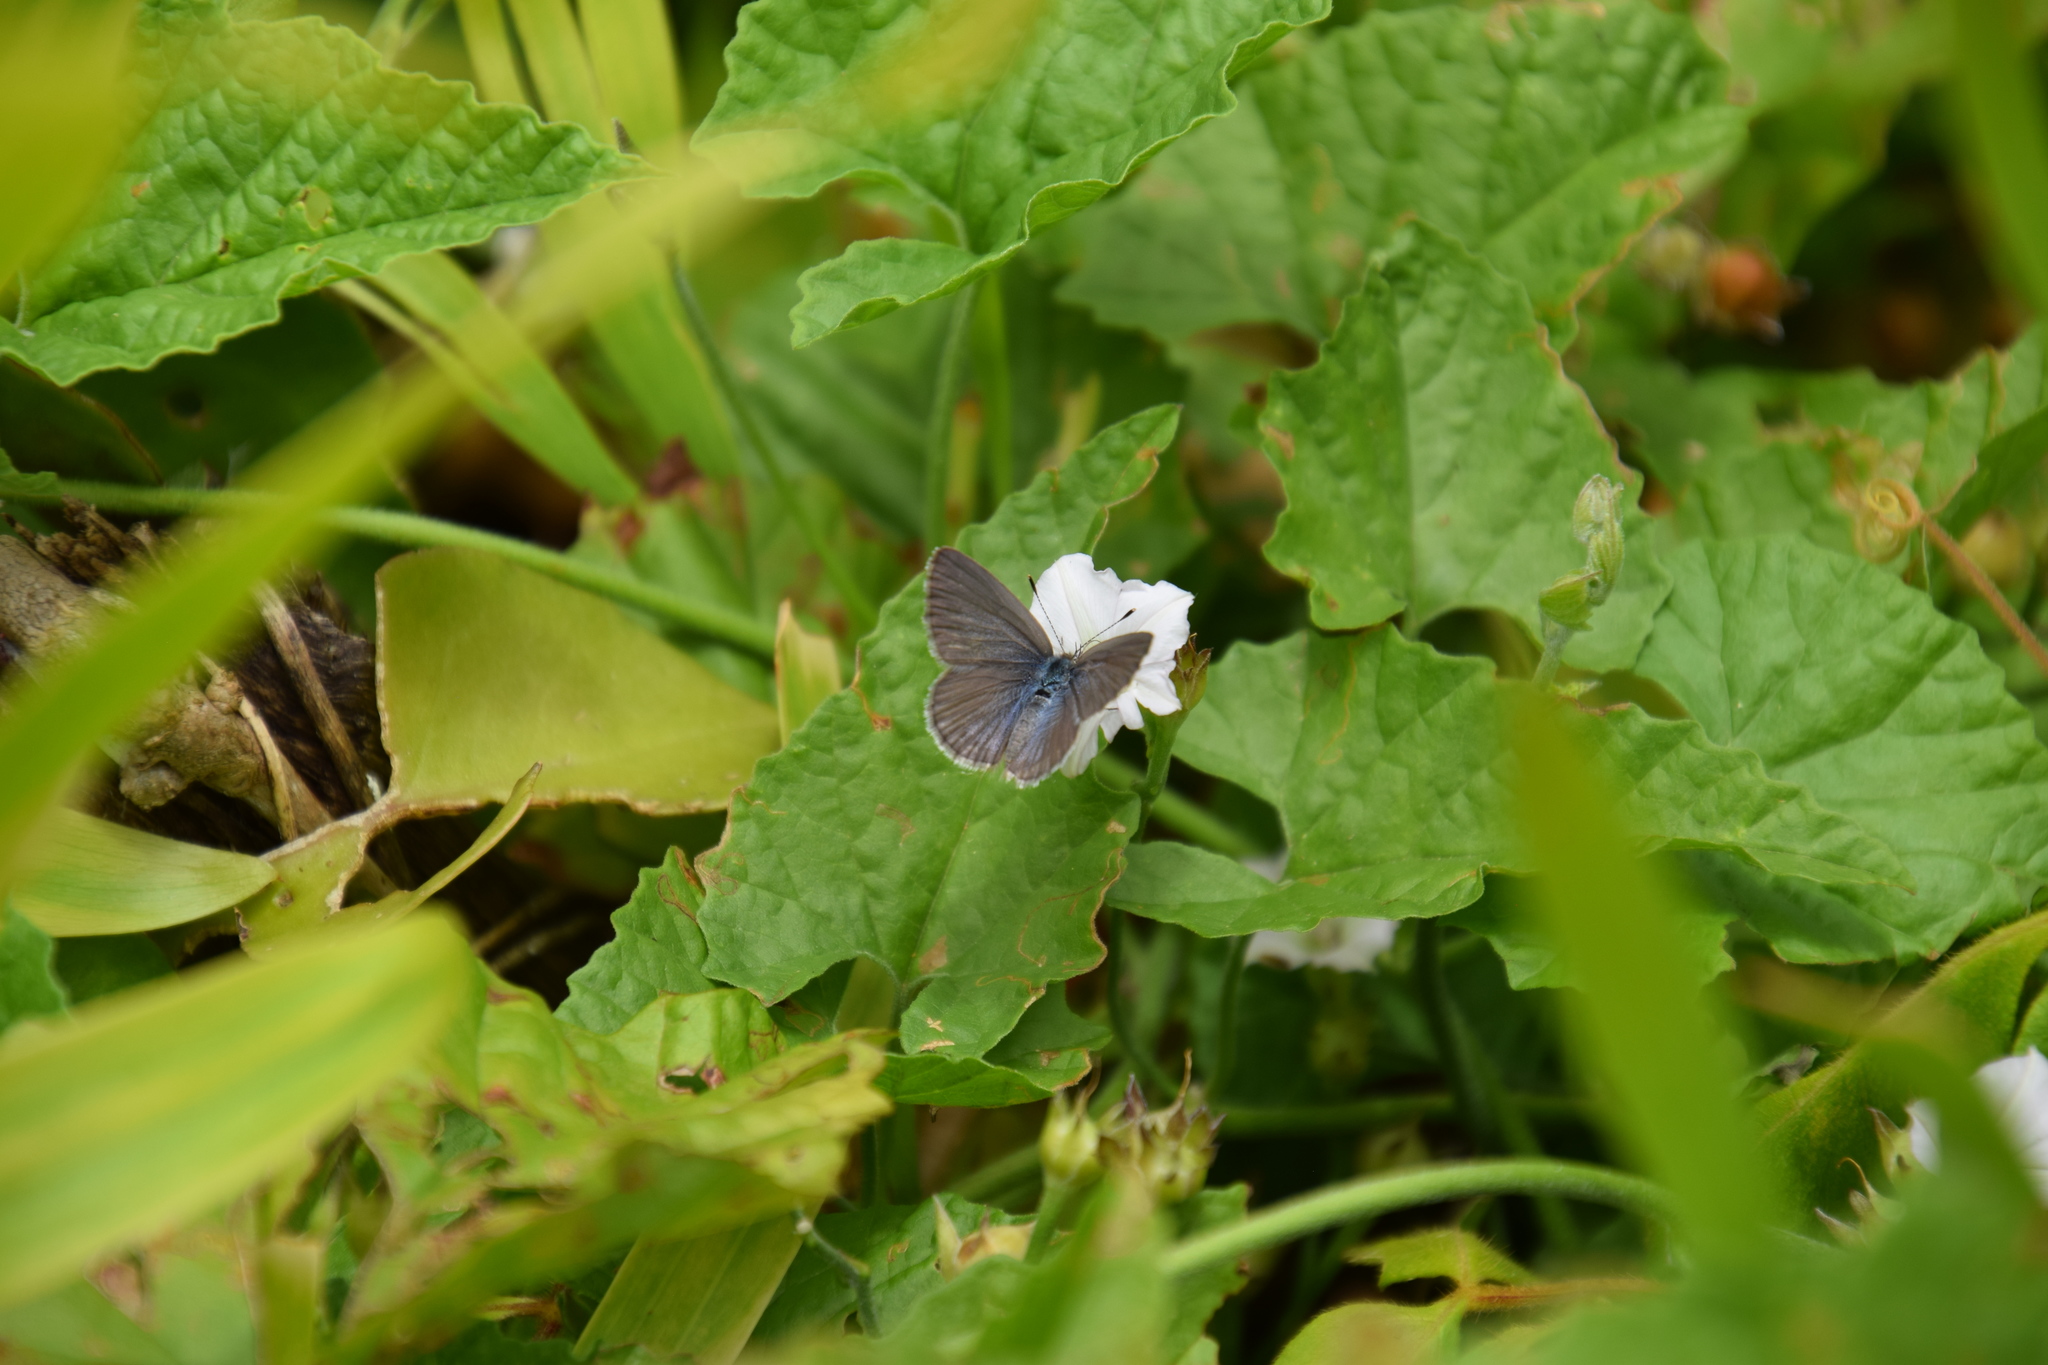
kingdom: Animalia
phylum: Arthropoda
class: Insecta
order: Lepidoptera
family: Lycaenidae
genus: Zizina
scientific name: Zizina labradus
